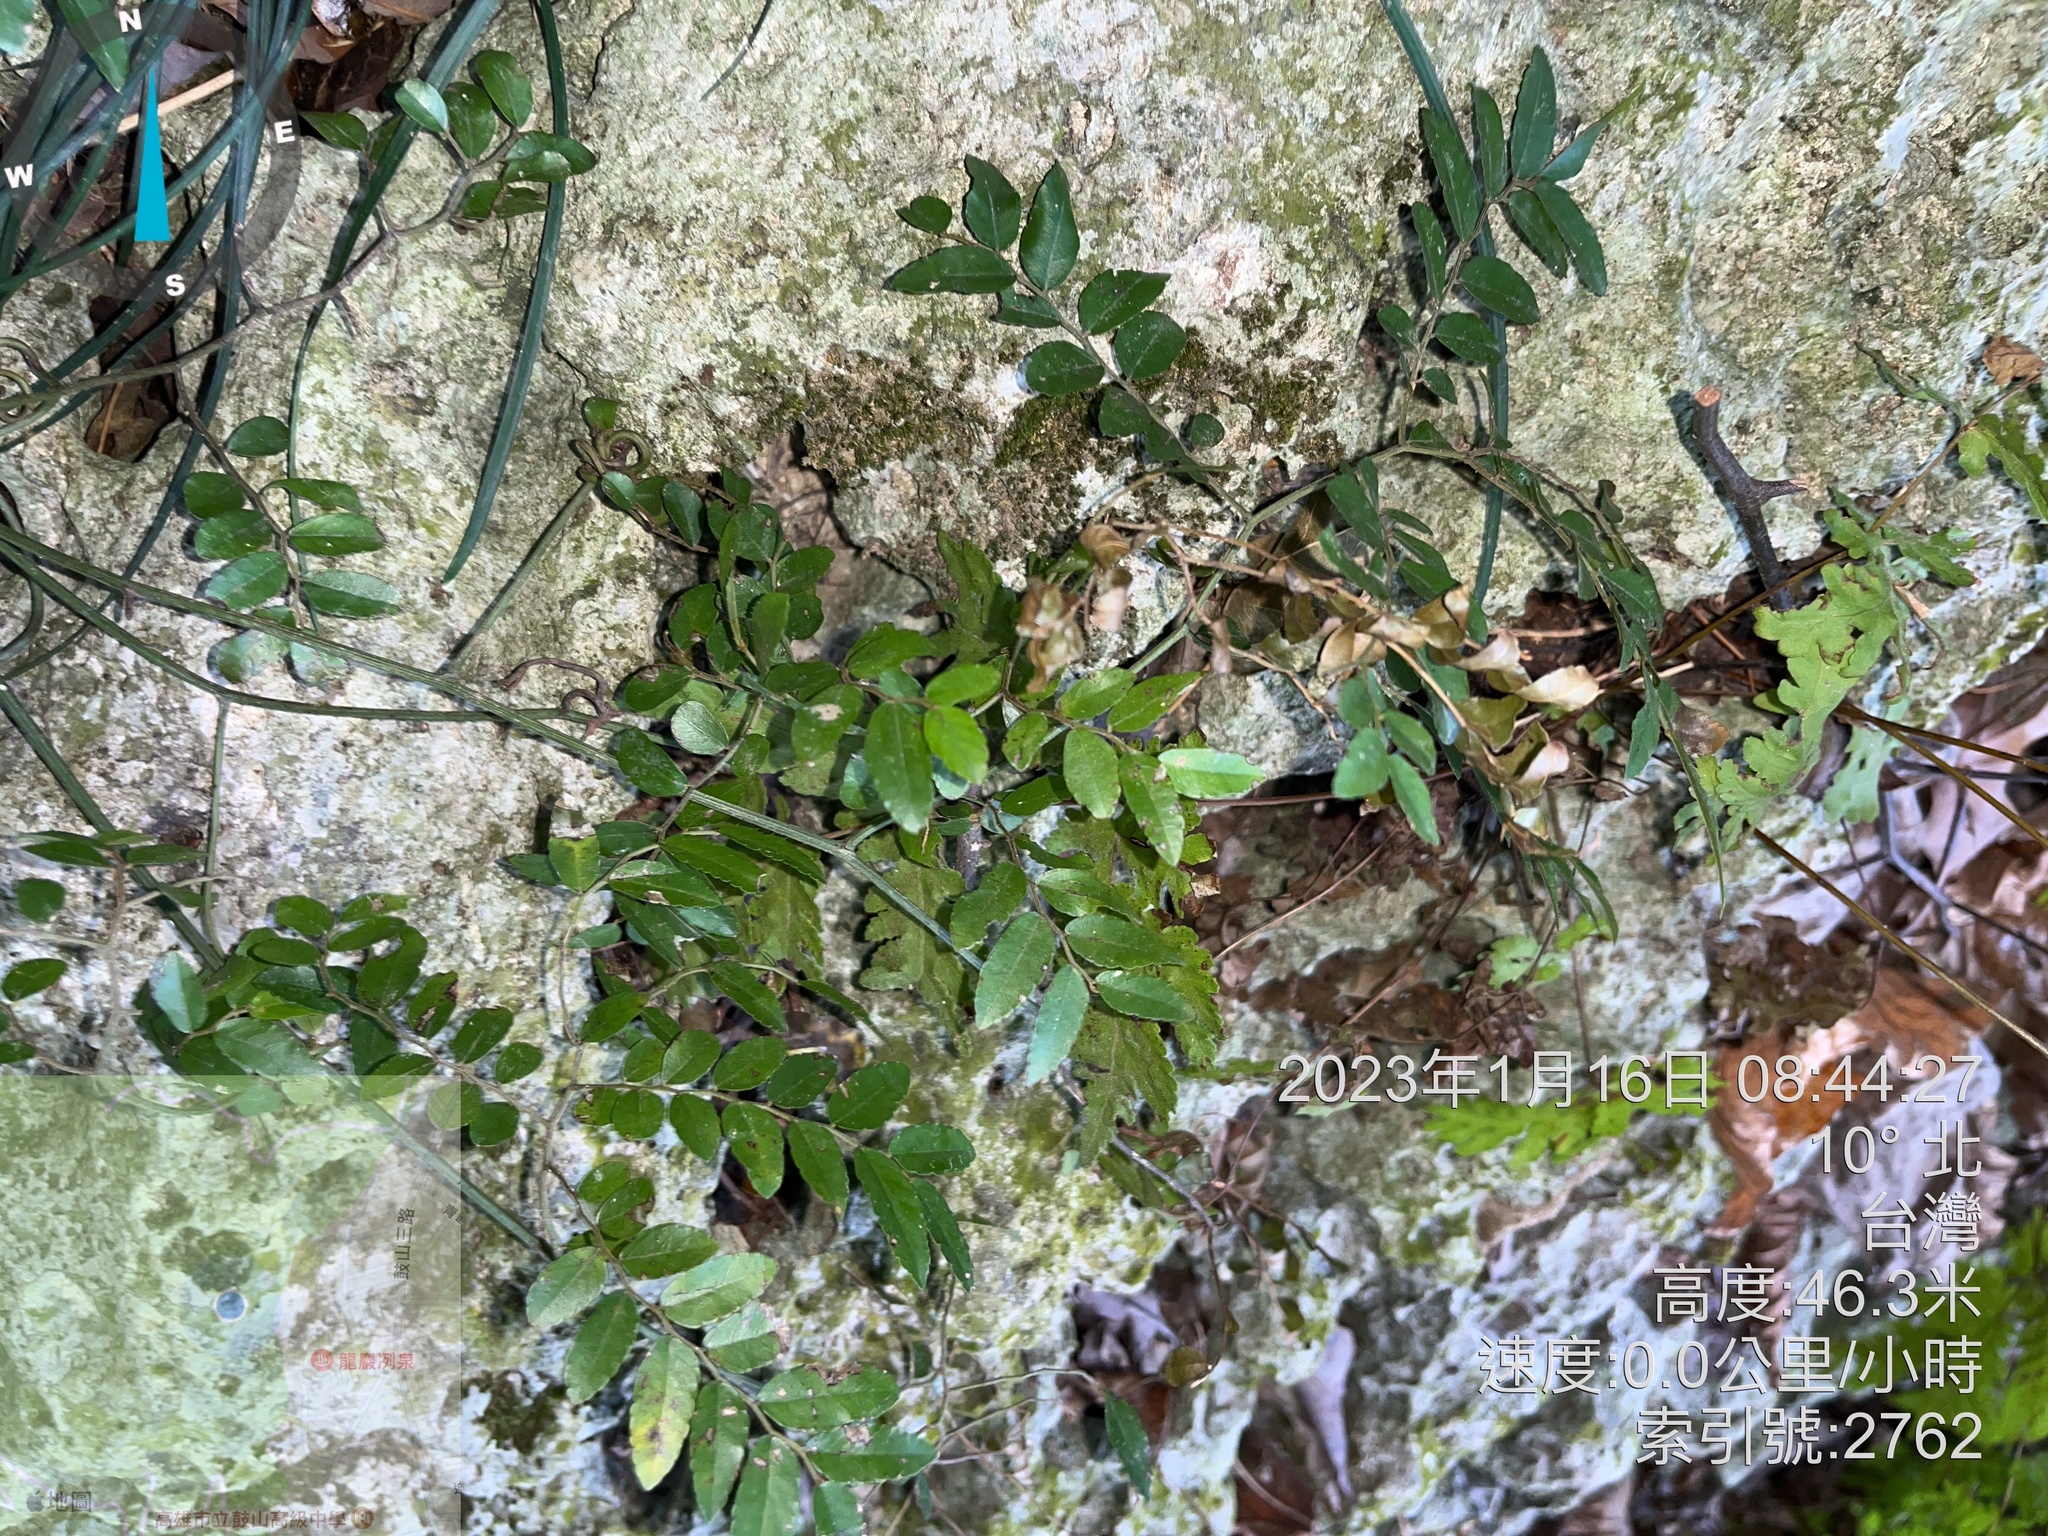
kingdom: Plantae
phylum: Tracheophyta
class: Magnoliopsida
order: Rosales
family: Rhamnaceae
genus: Ventilago
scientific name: Ventilago elegans
